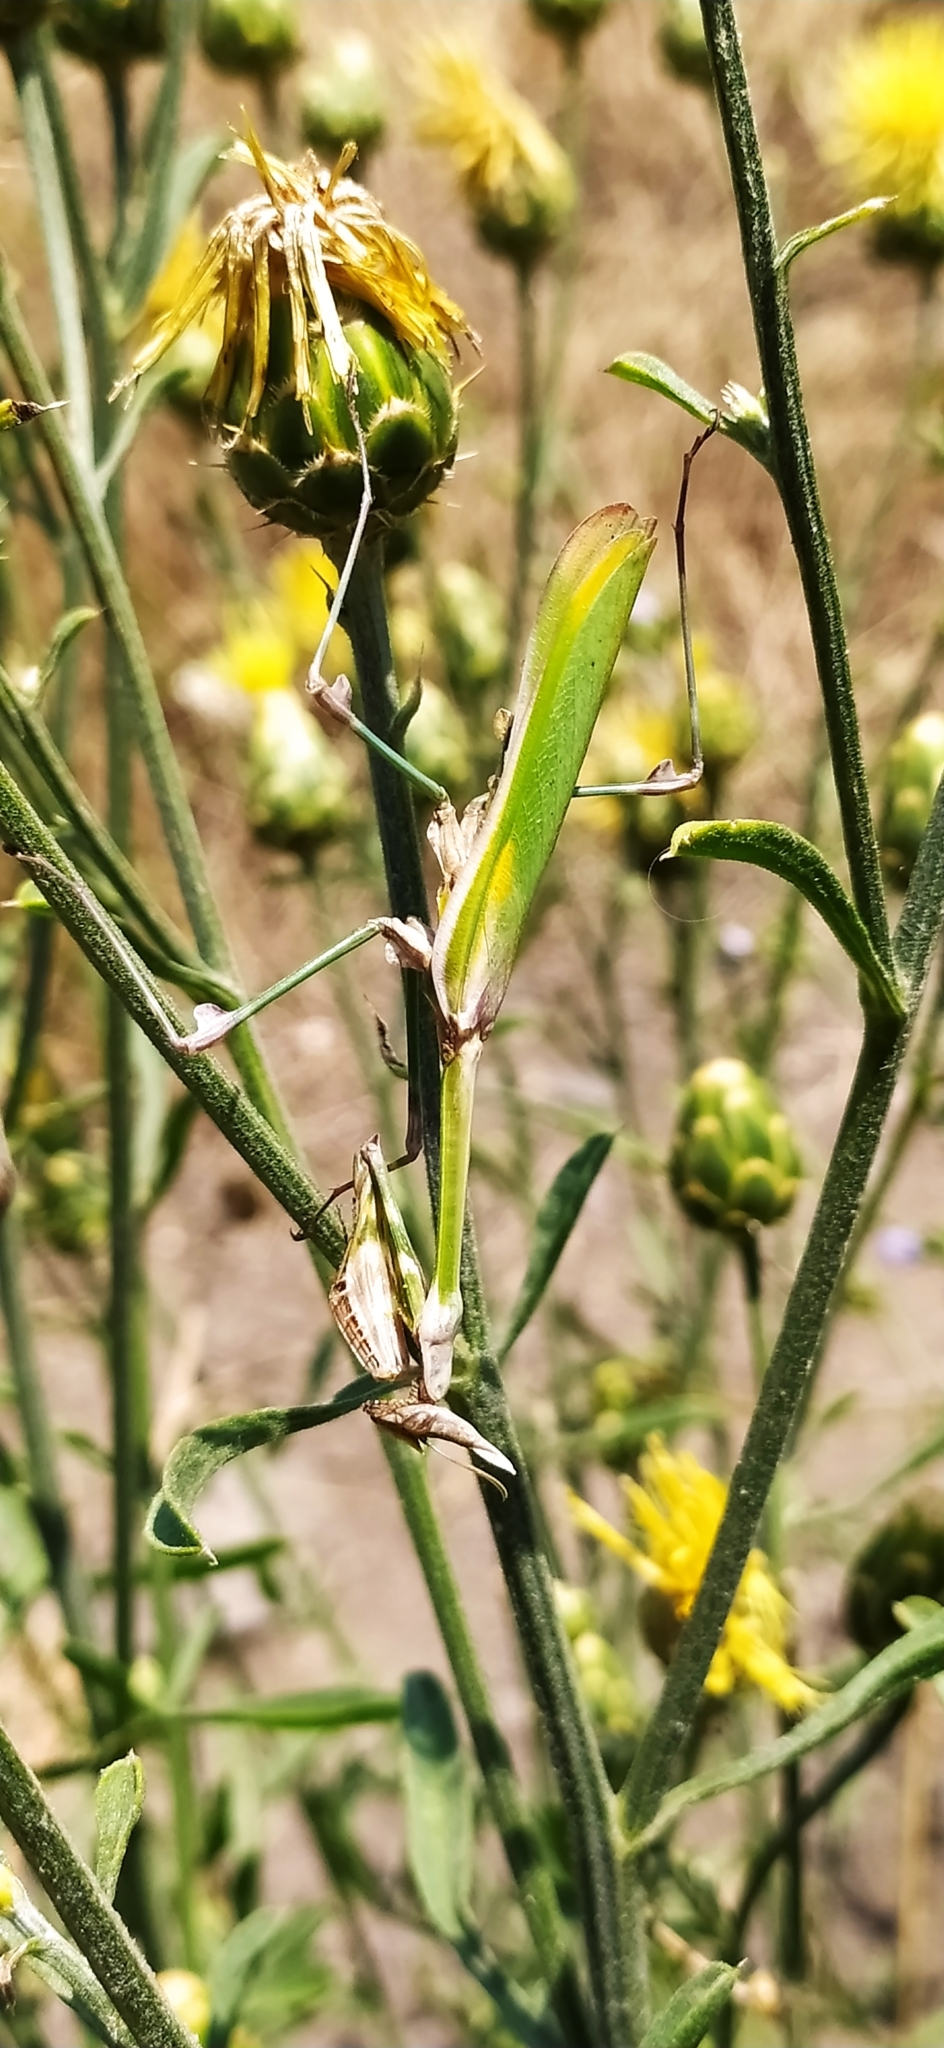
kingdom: Animalia
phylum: Arthropoda
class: Insecta
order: Mantodea
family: Empusidae
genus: Empusa
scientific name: Empusa fasciata
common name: Devil's mare
